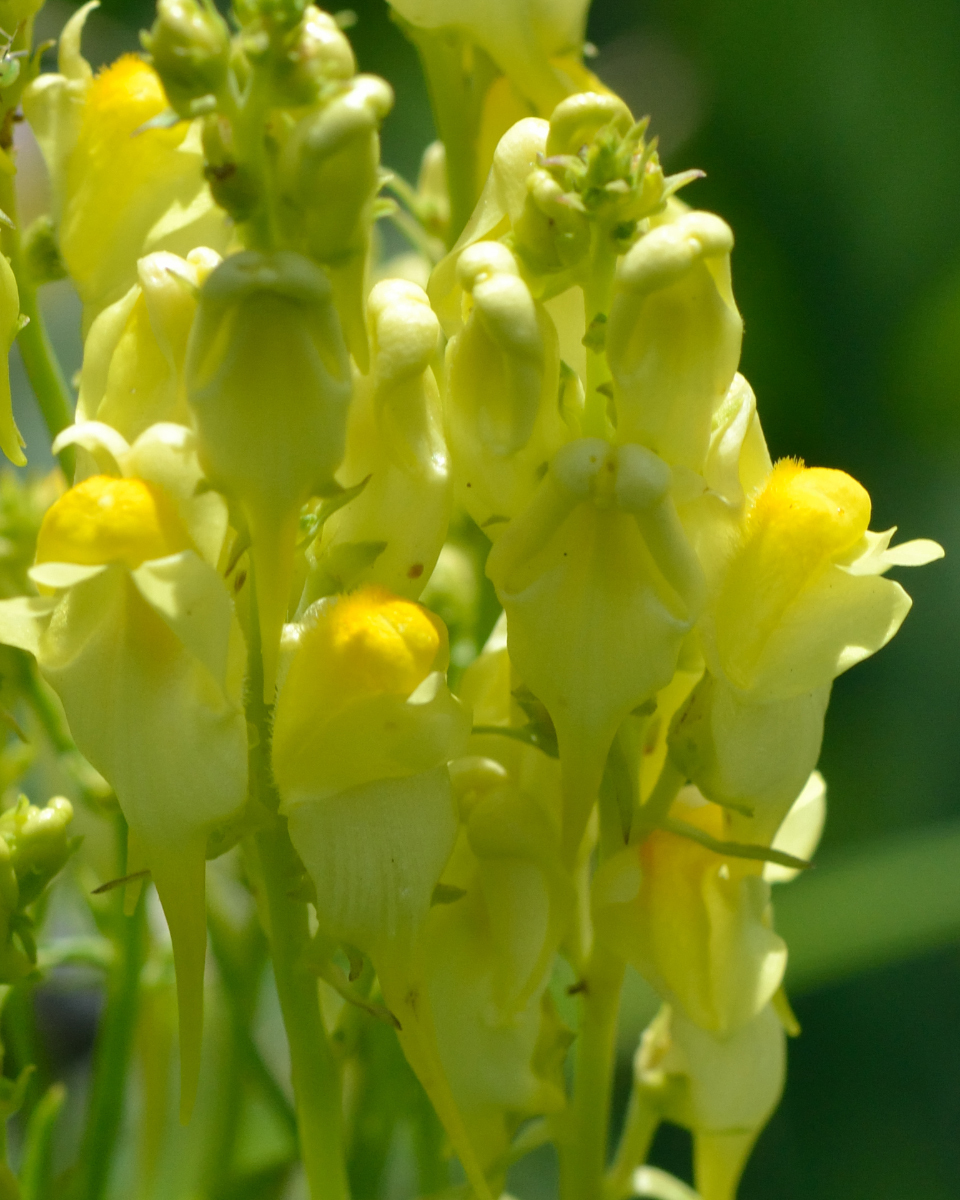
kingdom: Plantae
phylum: Tracheophyta
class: Magnoliopsida
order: Lamiales
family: Plantaginaceae
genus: Linaria
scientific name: Linaria vulgaris
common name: Butter and eggs
